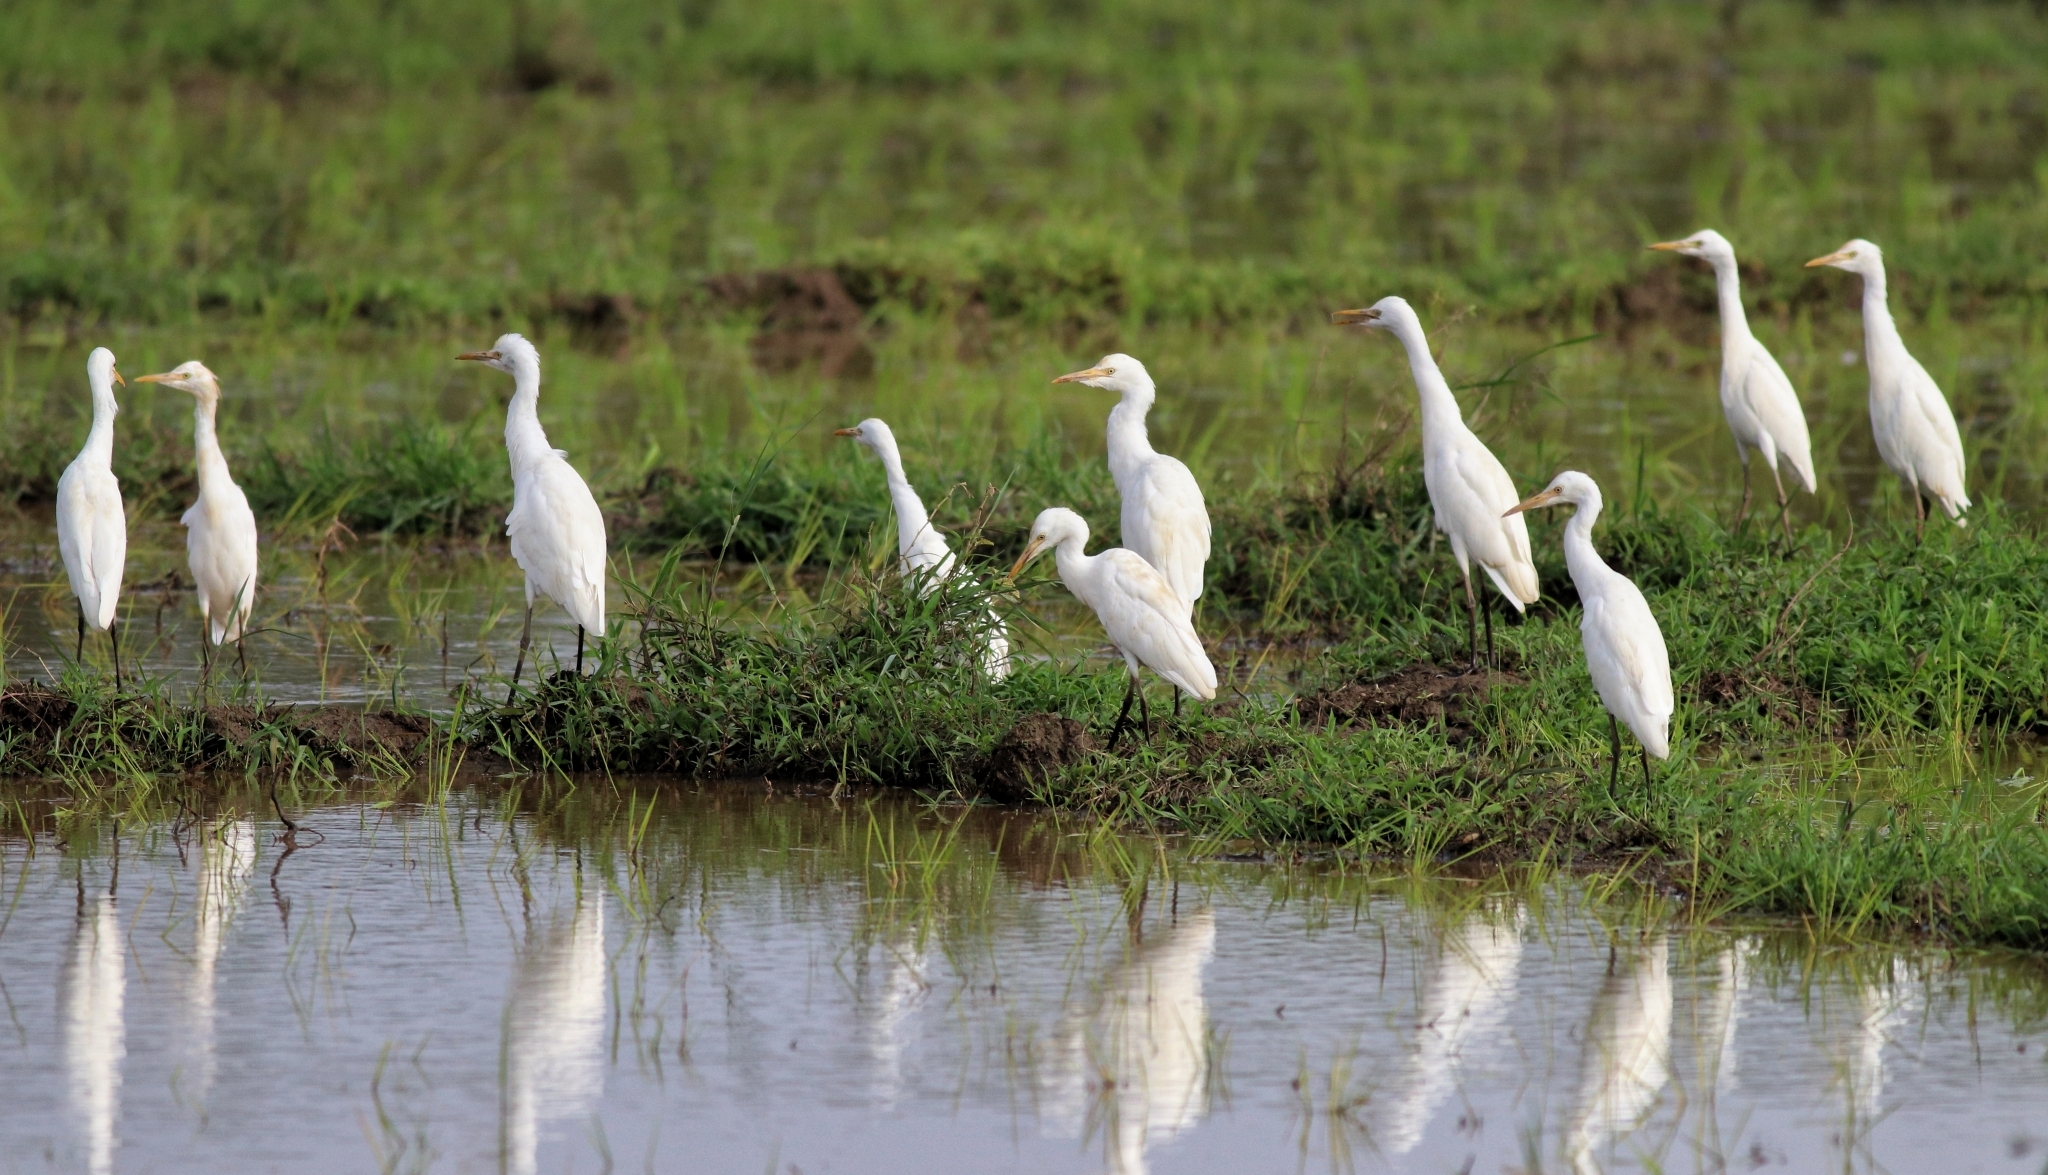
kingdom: Animalia
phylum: Chordata
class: Aves
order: Pelecaniformes
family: Ardeidae
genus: Bubulcus
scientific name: Bubulcus coromandus
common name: Eastern cattle egret
